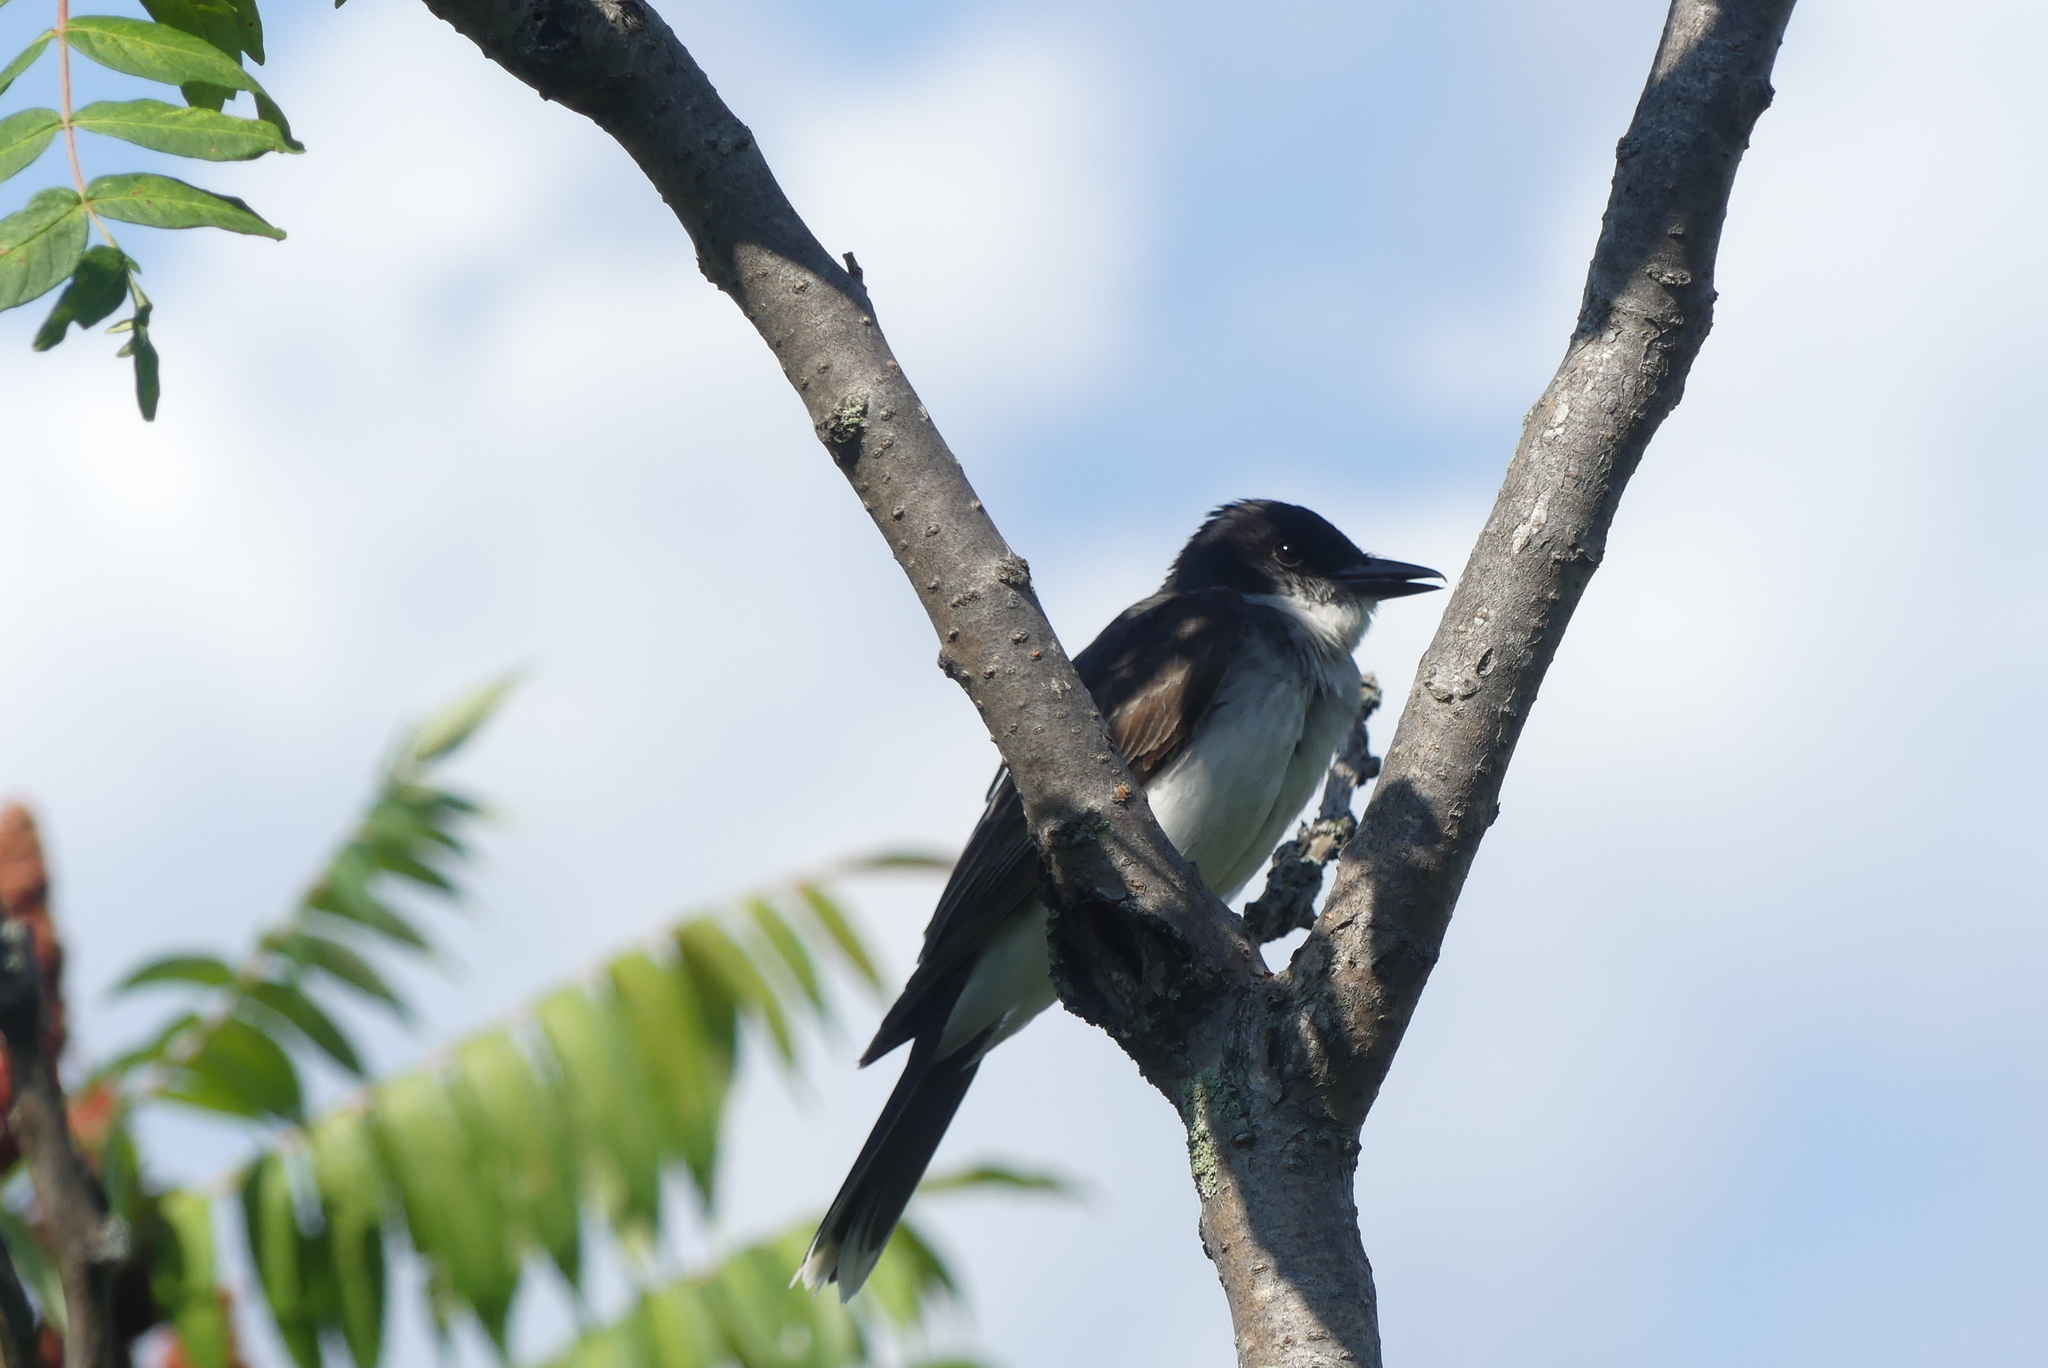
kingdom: Animalia
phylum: Chordata
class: Aves
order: Passeriformes
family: Tyrannidae
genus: Tyrannus
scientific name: Tyrannus tyrannus
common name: Eastern kingbird
